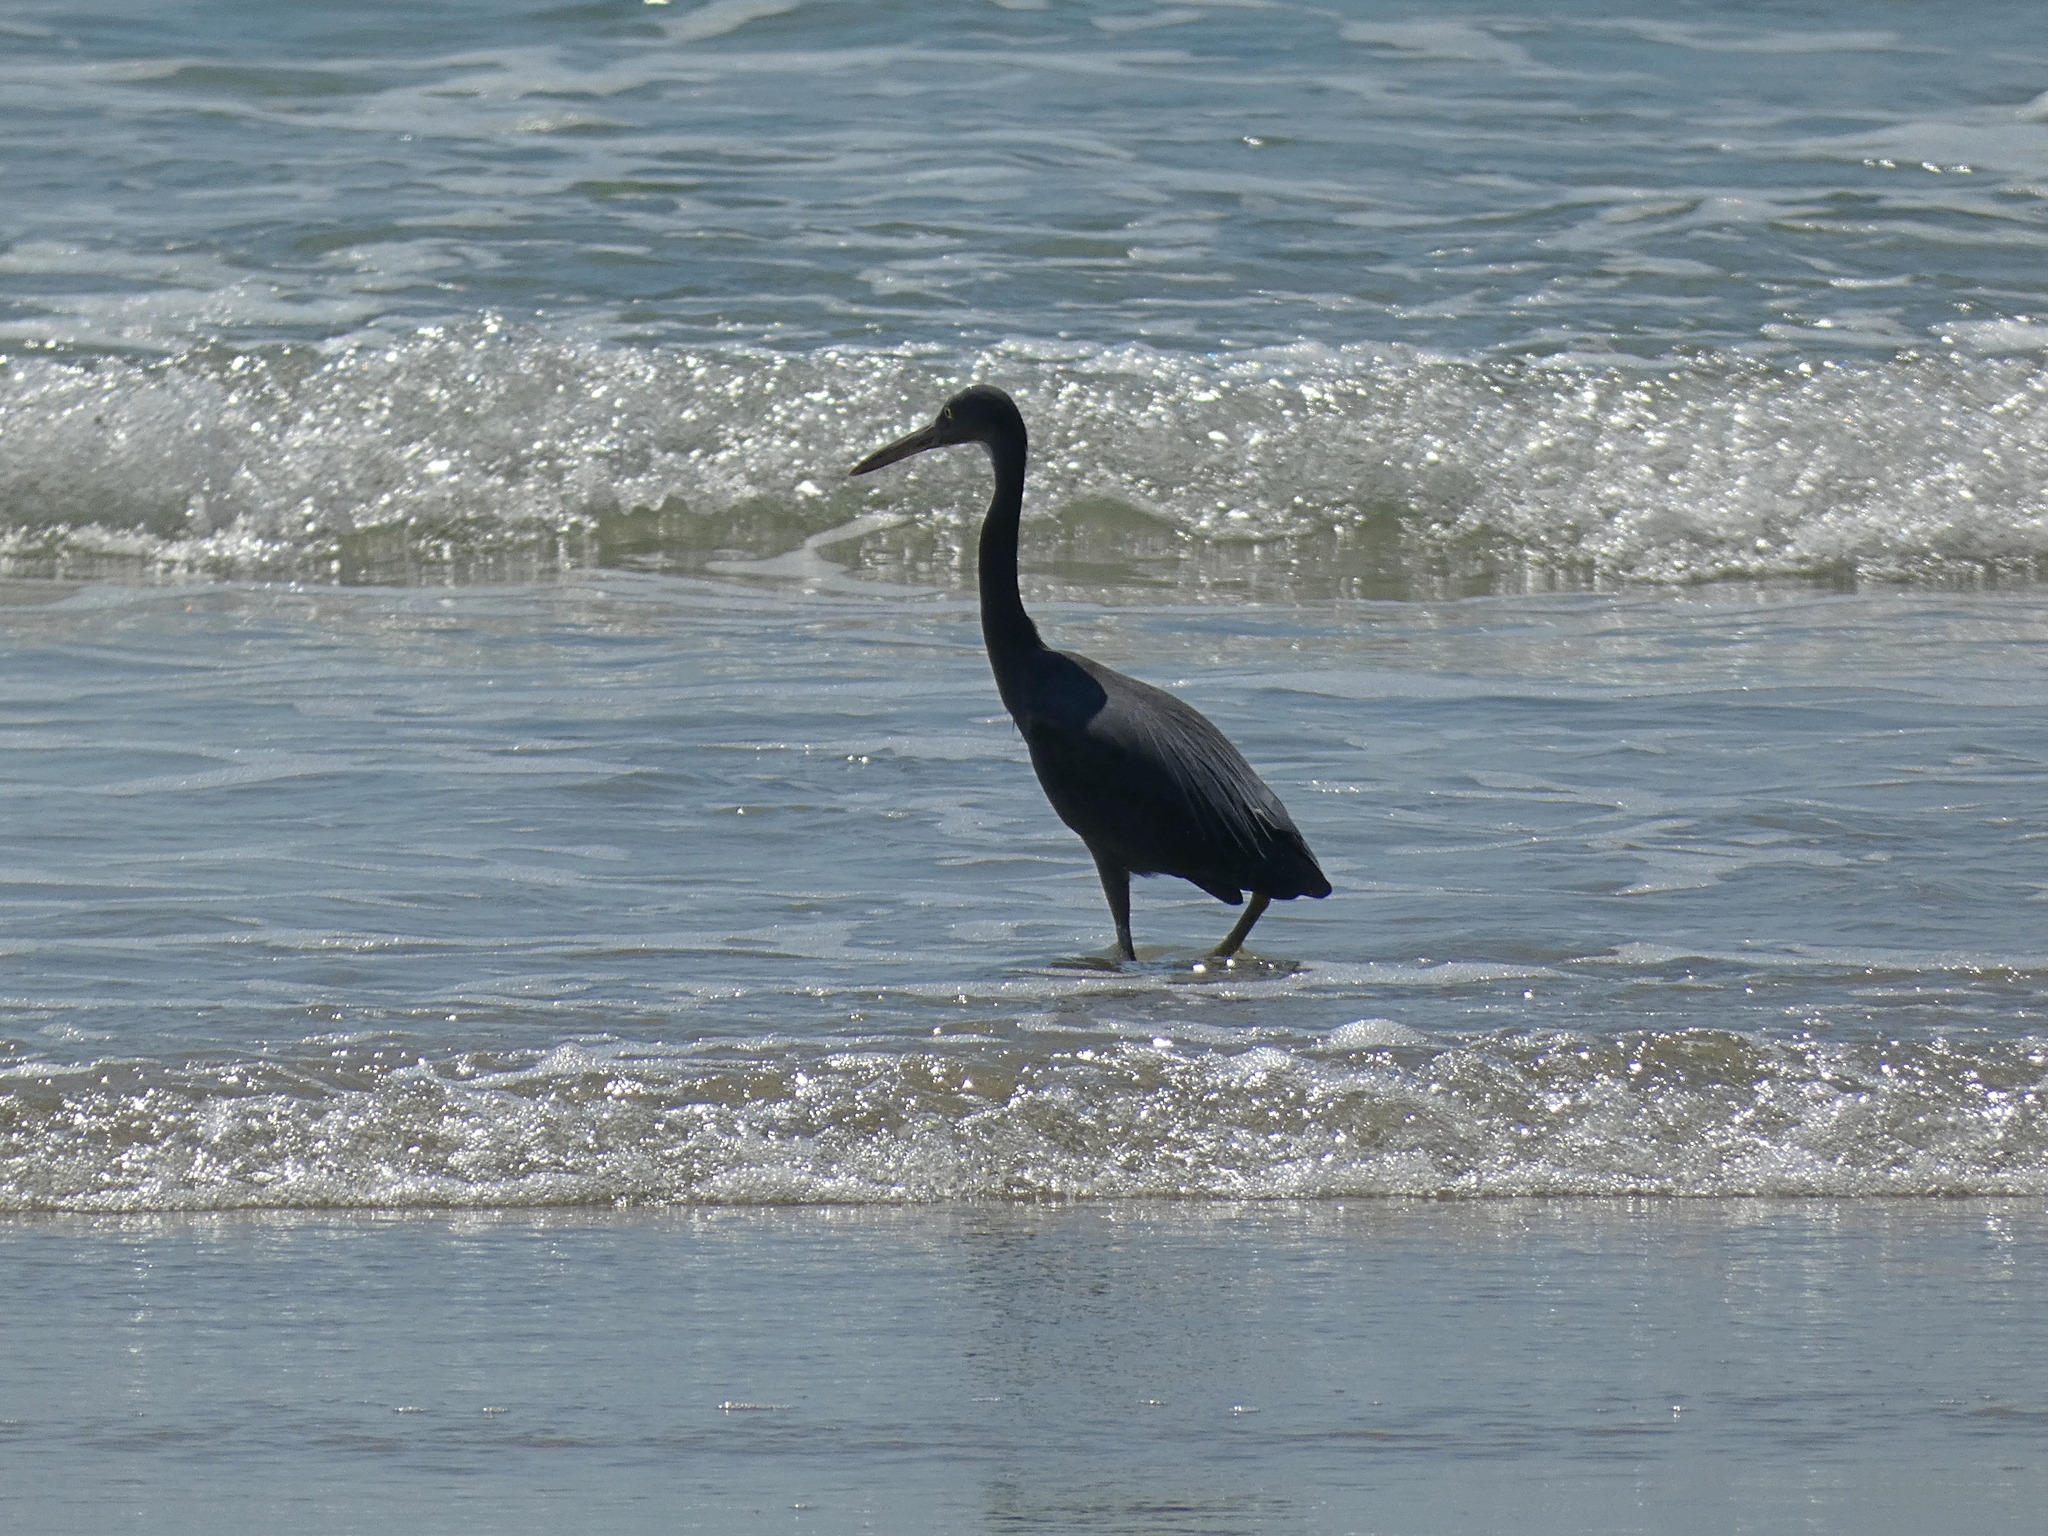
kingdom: Animalia
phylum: Chordata
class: Aves
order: Pelecaniformes
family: Ardeidae
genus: Egretta
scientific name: Egretta sacra
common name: Pacific reef heron
